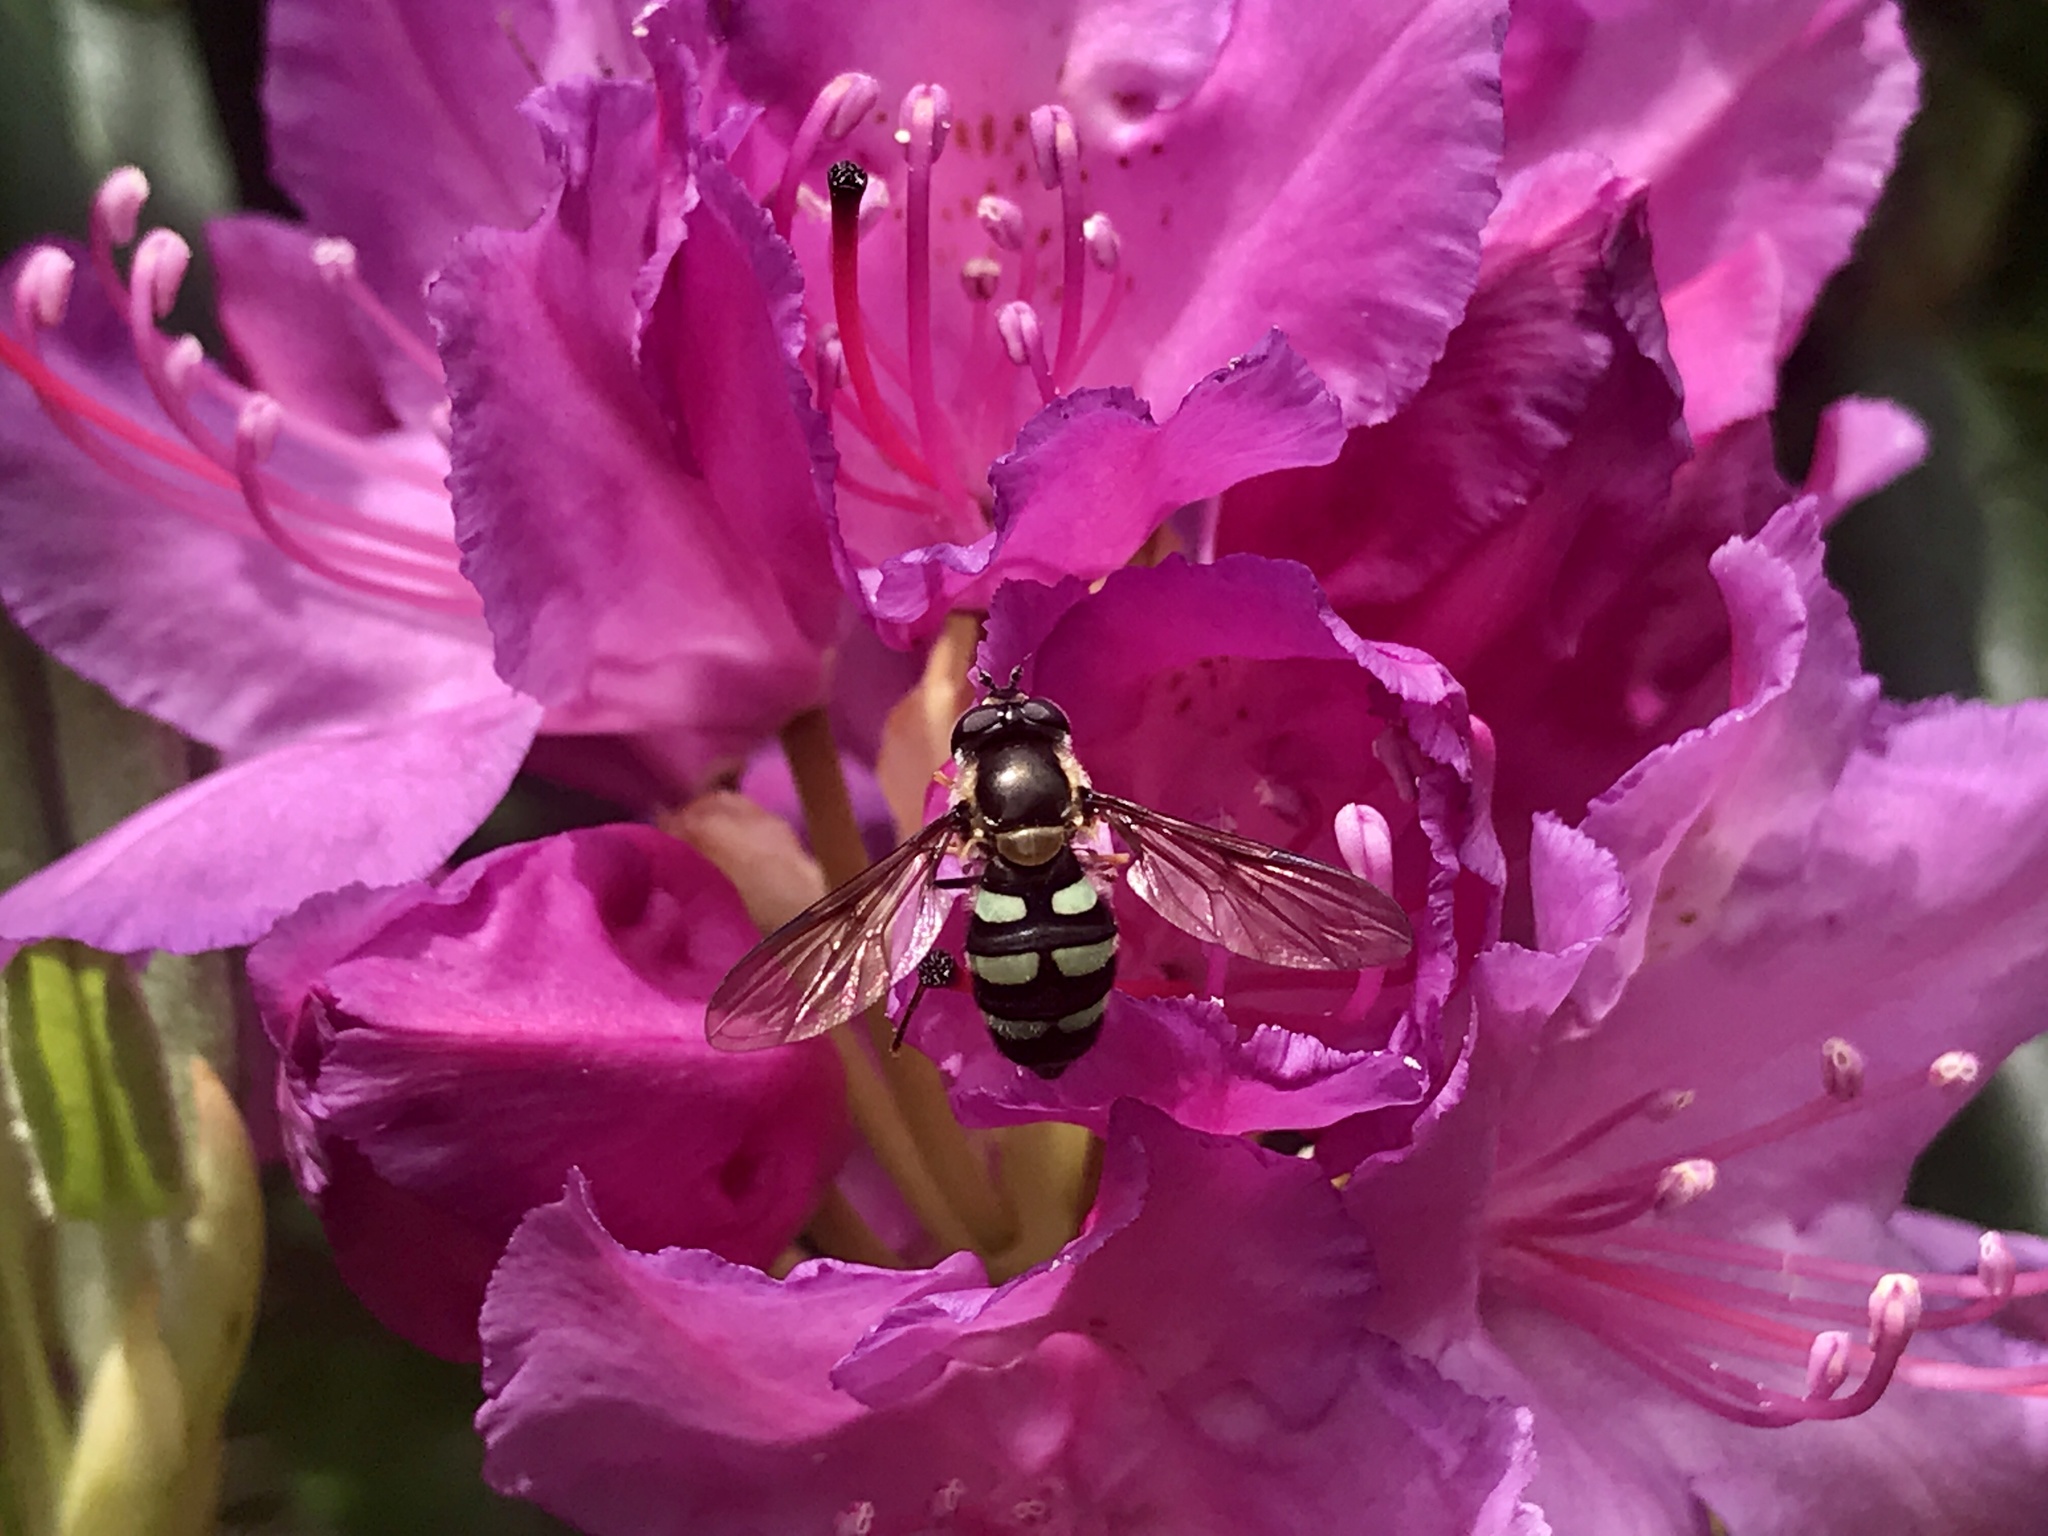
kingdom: Animalia
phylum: Arthropoda
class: Insecta
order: Diptera
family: Syrphidae
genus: Megasyrphus
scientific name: Megasyrphus laxus
